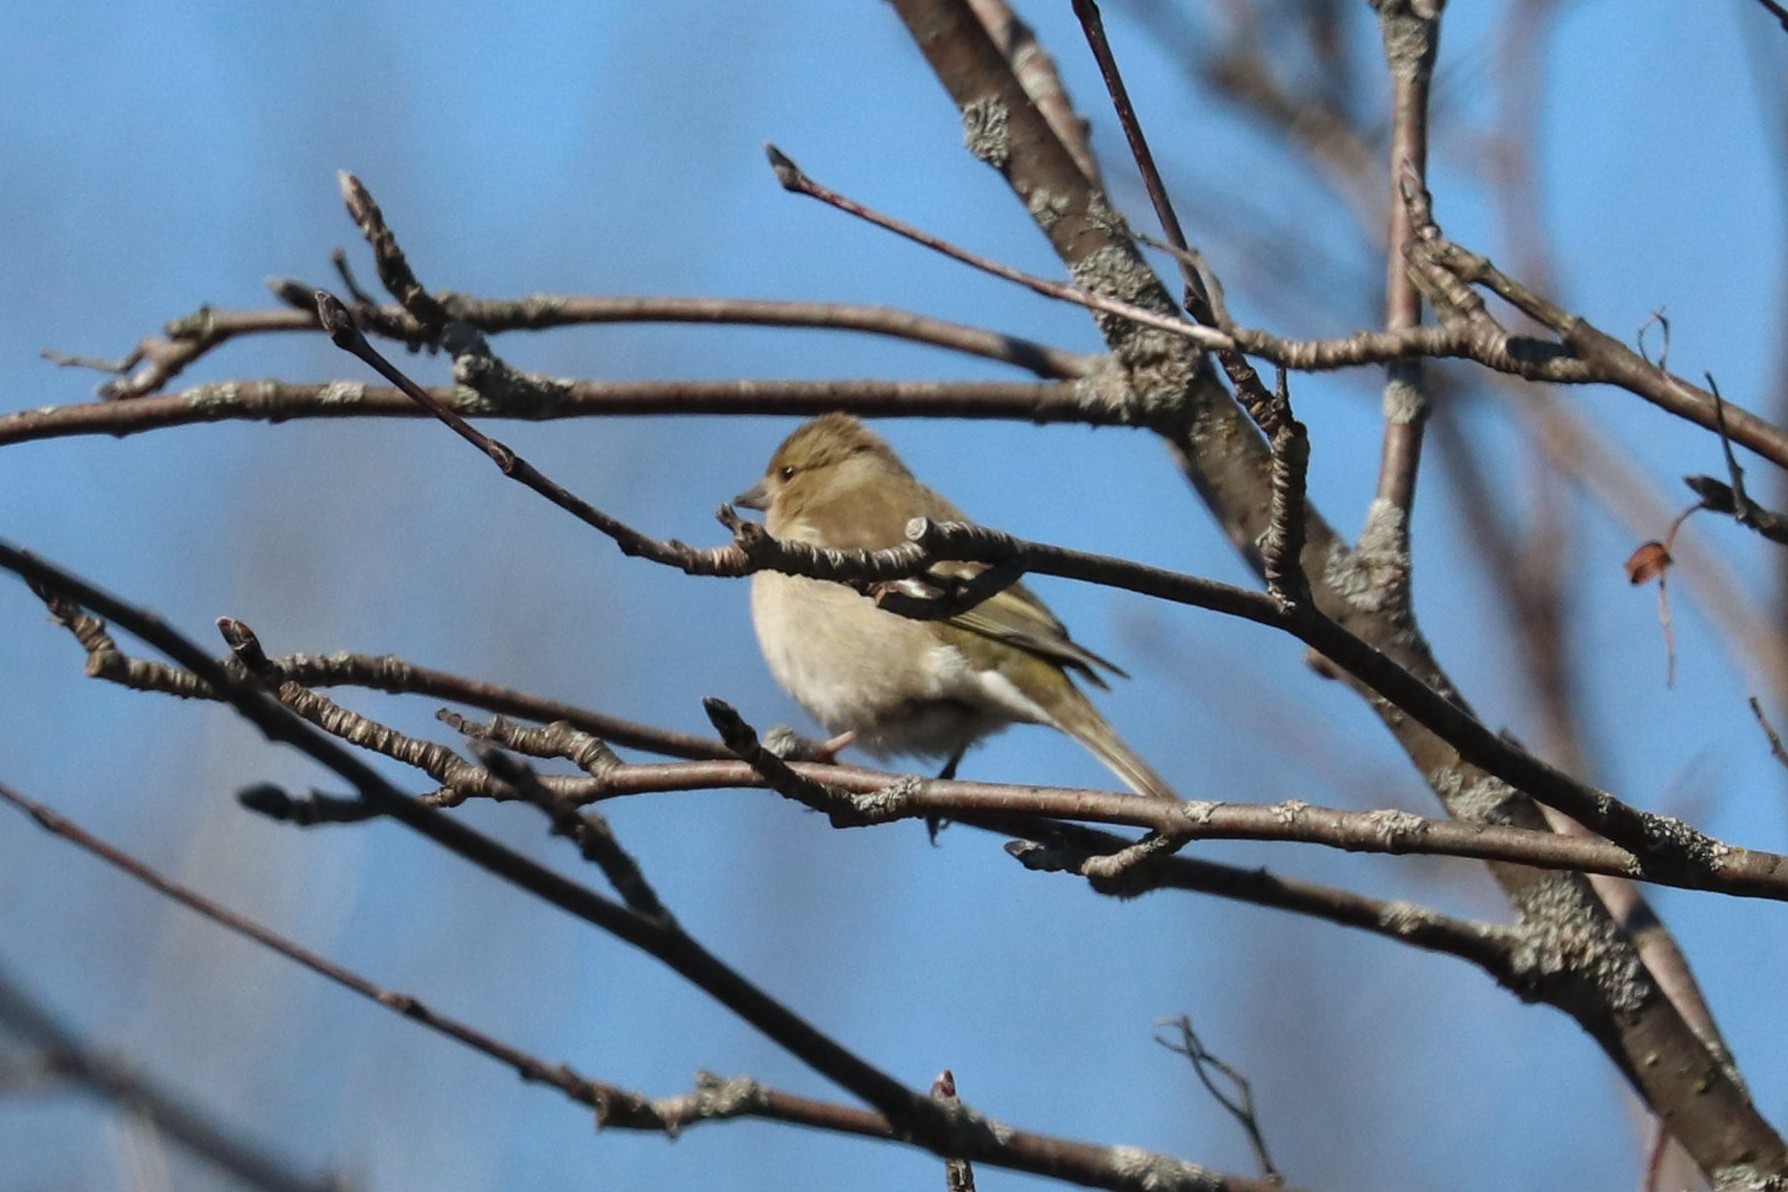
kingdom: Animalia
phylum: Chordata
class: Aves
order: Passeriformes
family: Fringillidae
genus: Fringilla
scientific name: Fringilla coelebs
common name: Common chaffinch
